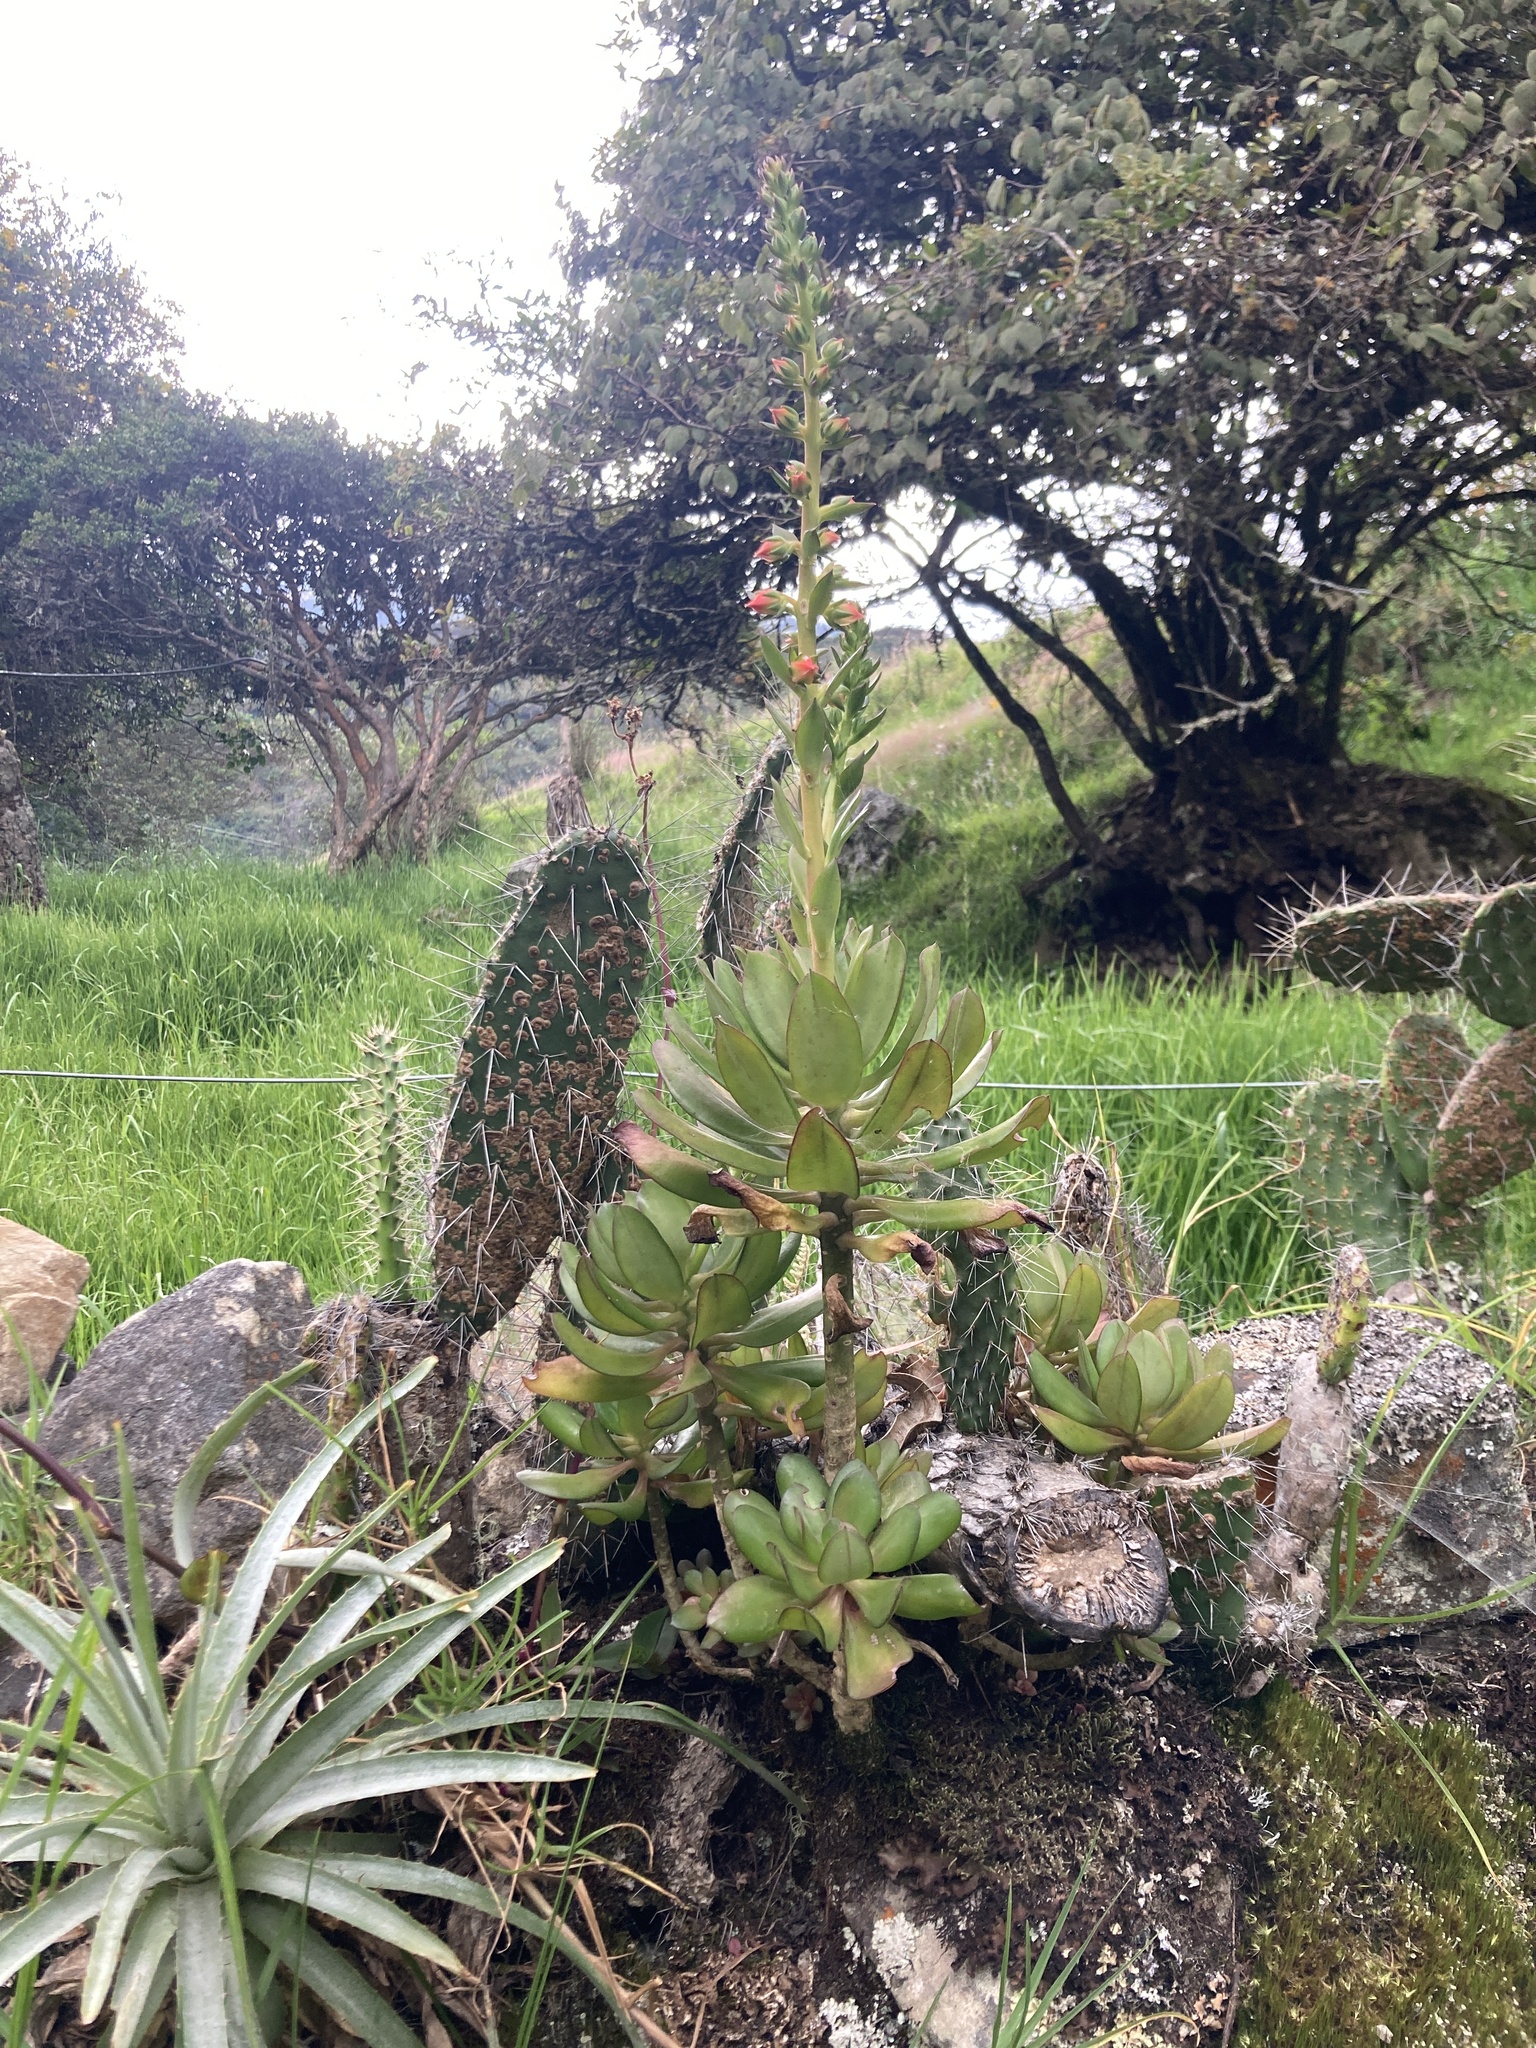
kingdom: Plantae
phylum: Tracheophyta
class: Magnoliopsida
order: Saxifragales
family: Crassulaceae
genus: Echeveria
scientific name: Echeveria bicolor
